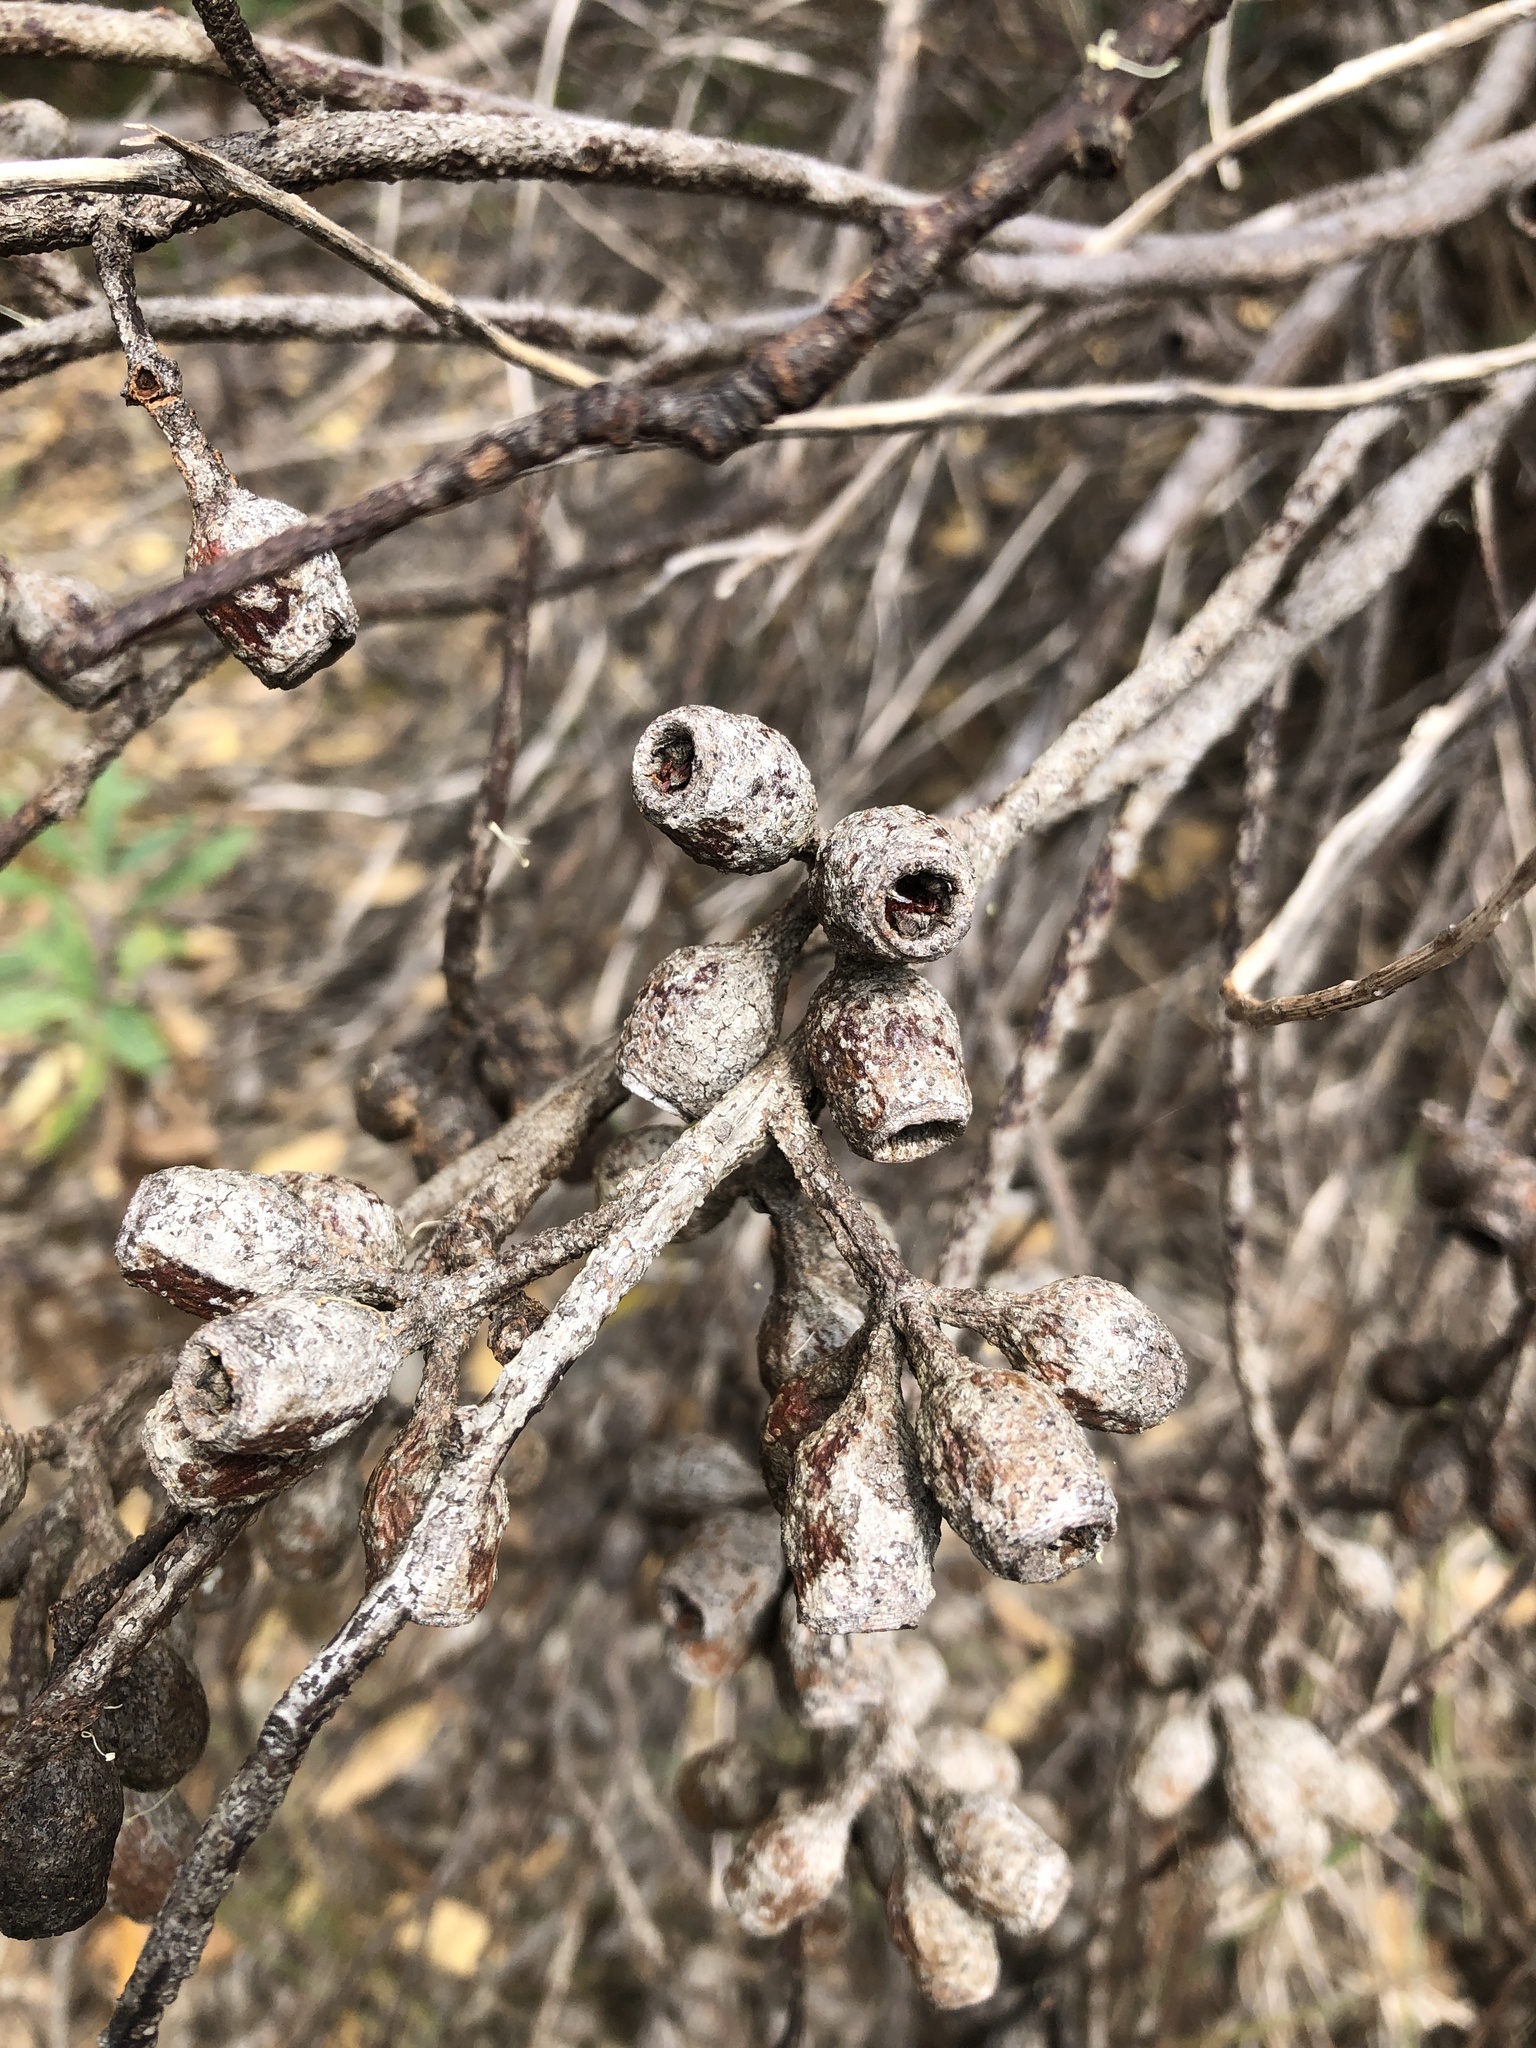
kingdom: Plantae
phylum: Tracheophyta
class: Magnoliopsida
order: Myrtales
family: Myrtaceae
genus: Eucalyptus
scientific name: Eucalyptus incrassata
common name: Ridge-fruit mallee
